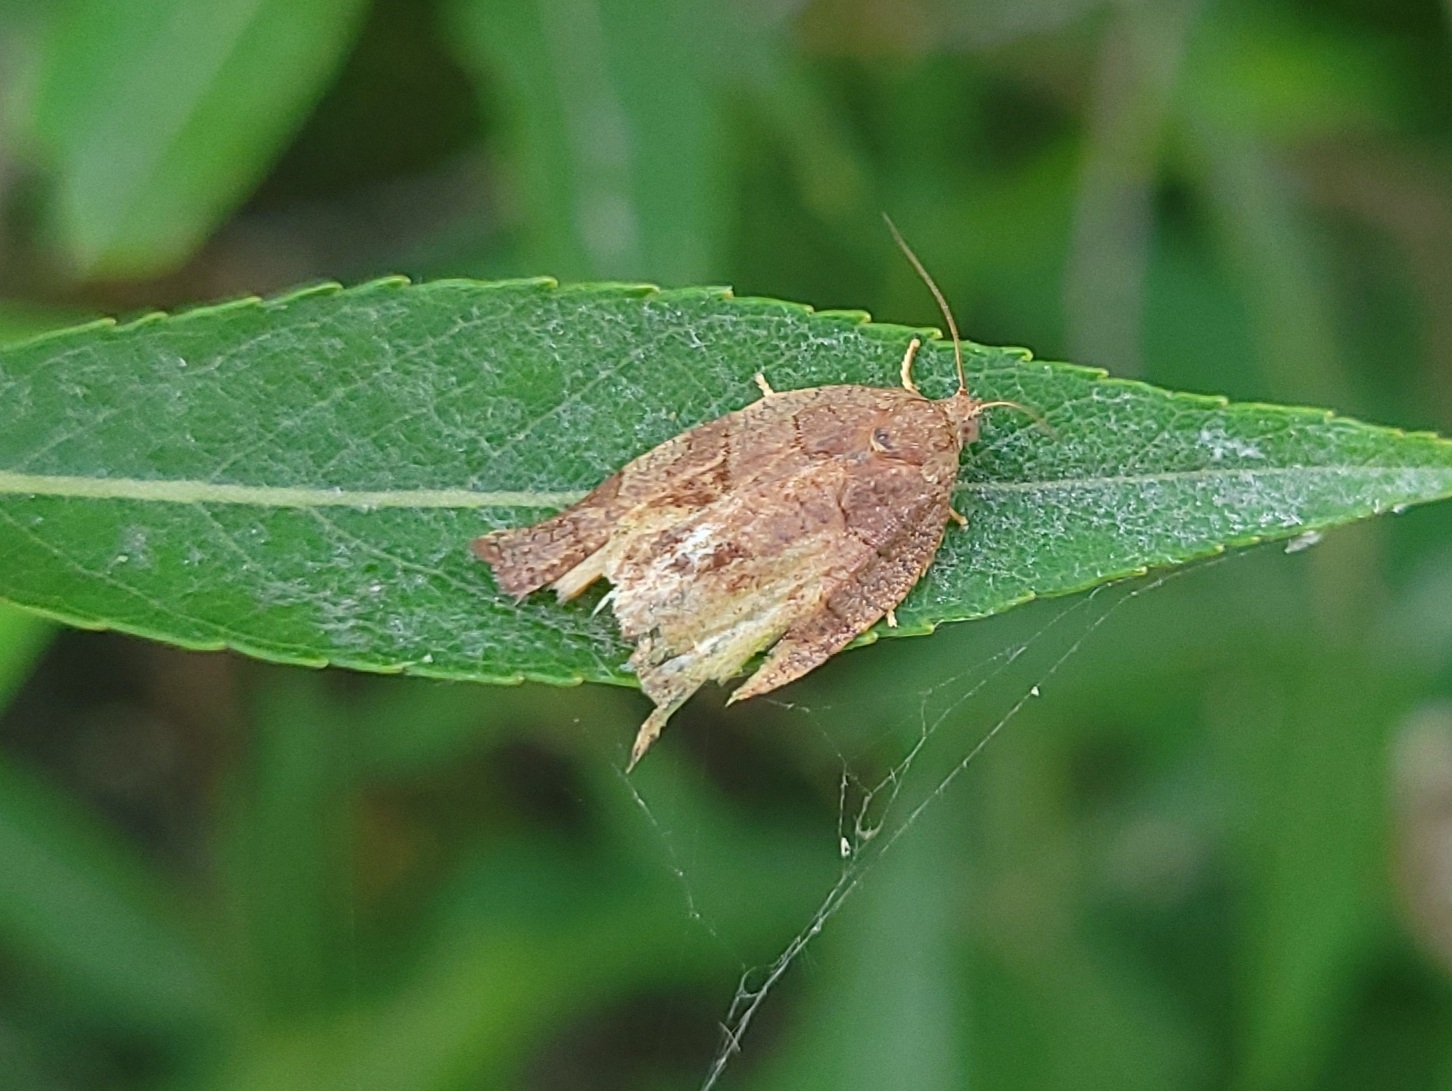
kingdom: Animalia
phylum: Arthropoda
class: Insecta
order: Lepidoptera
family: Tortricidae
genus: Choristoneura
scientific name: Choristoneura rosaceana
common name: Oblique-banded leafroller moth
